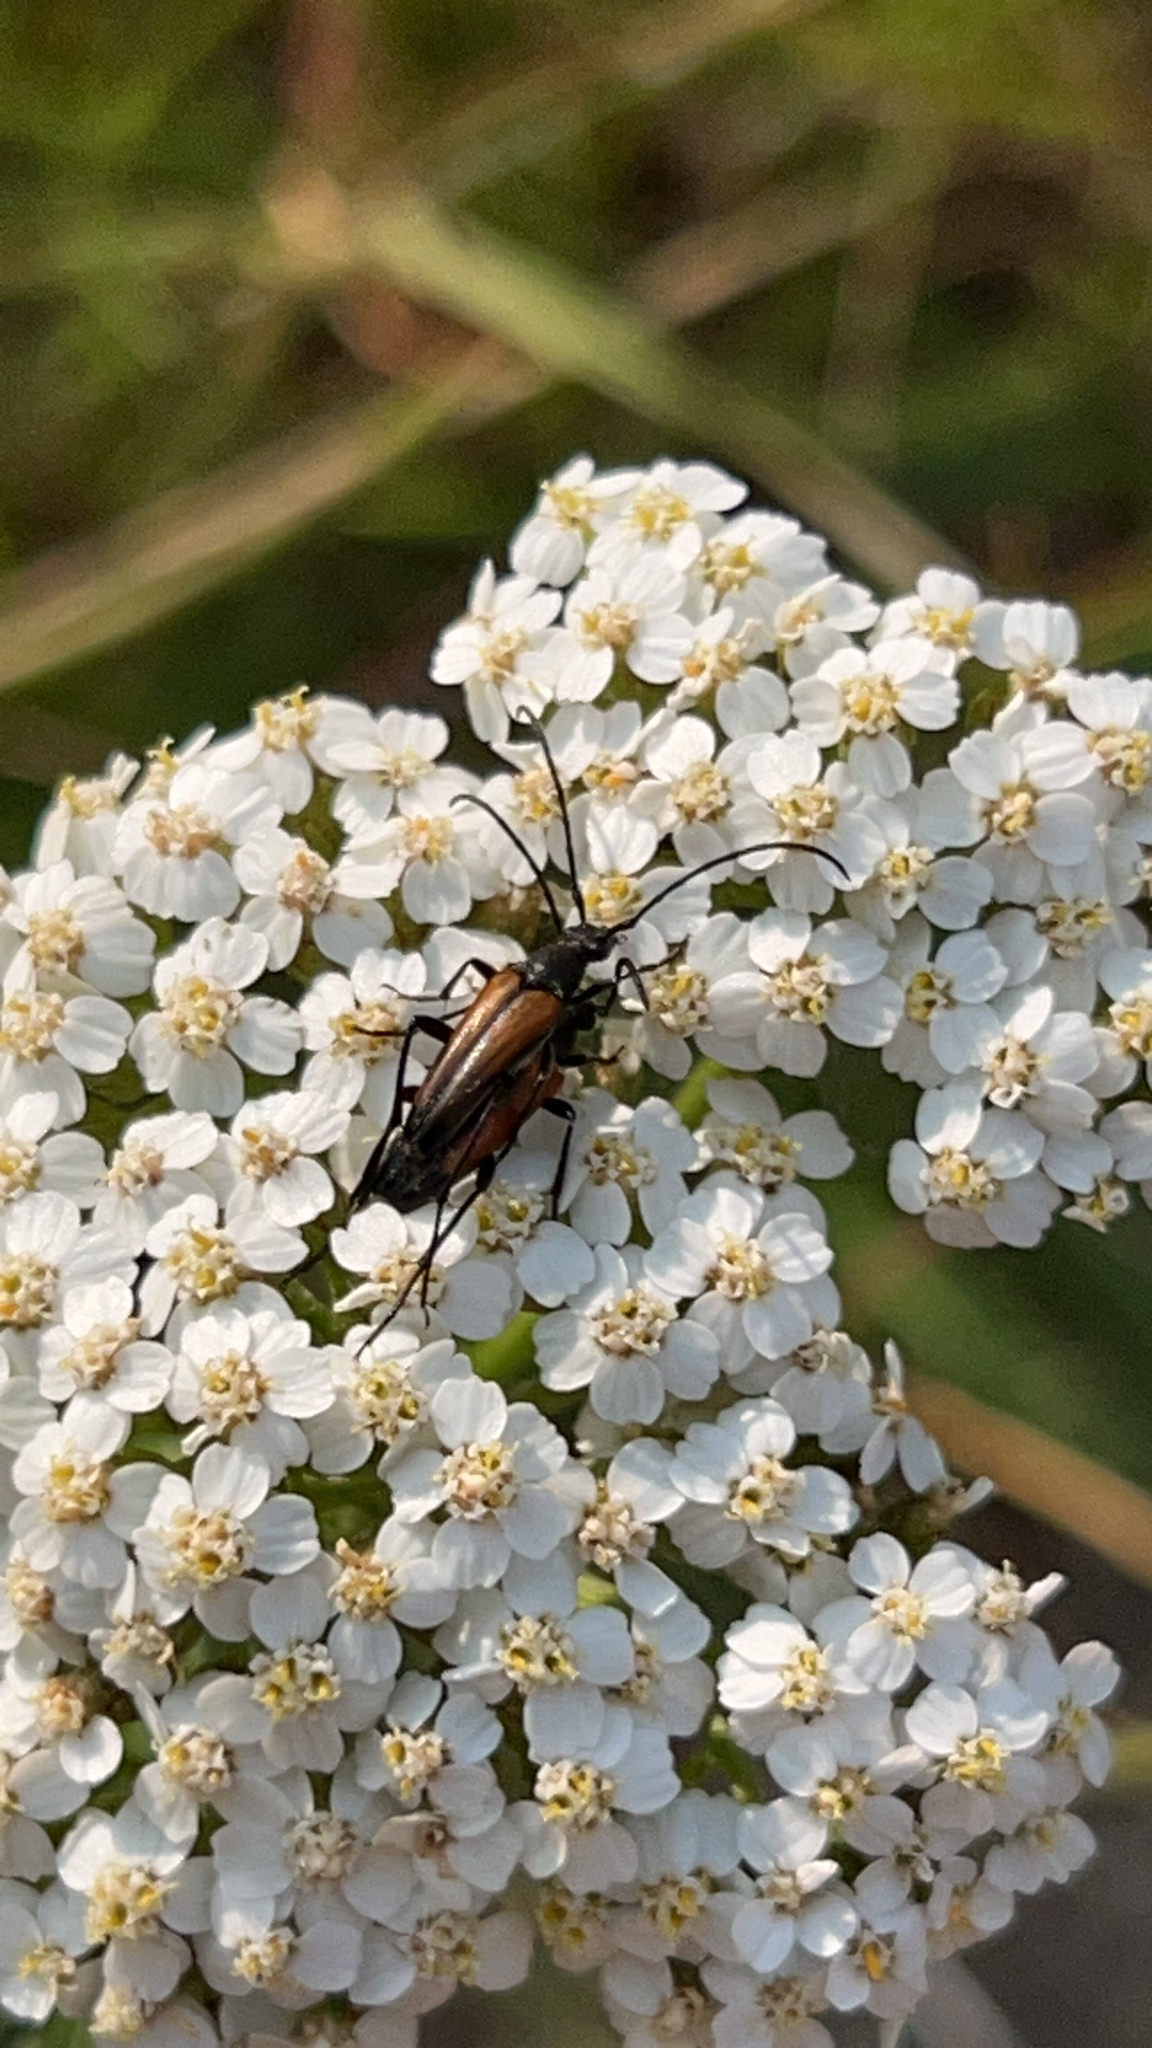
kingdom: Animalia
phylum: Arthropoda
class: Insecta
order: Coleoptera
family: Cerambycidae
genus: Stenurella
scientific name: Stenurella melanura
